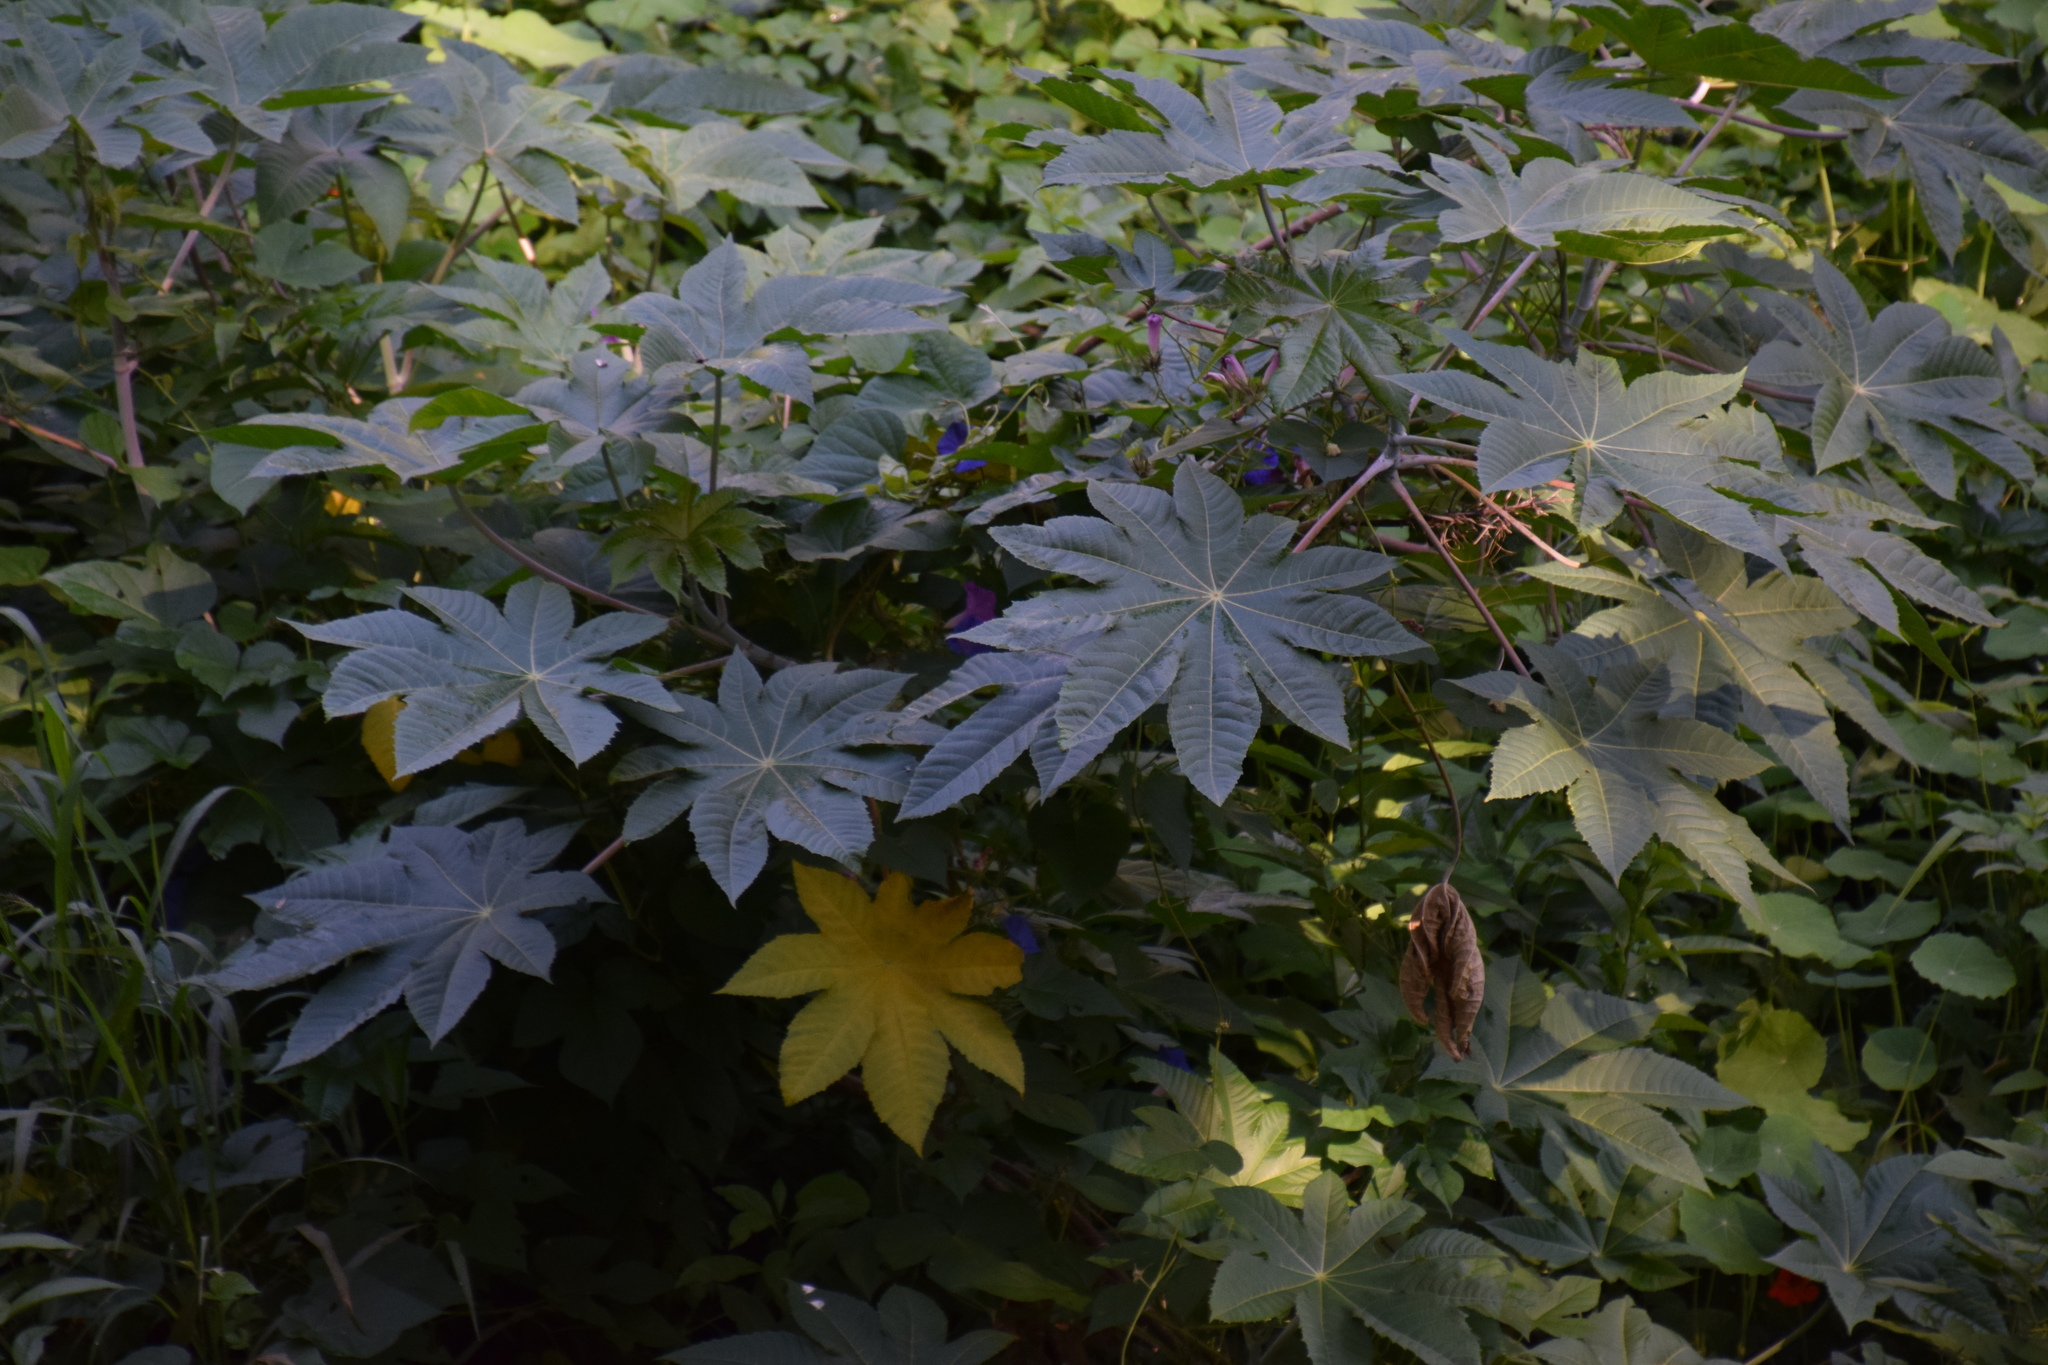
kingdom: Plantae
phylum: Tracheophyta
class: Magnoliopsida
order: Malpighiales
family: Euphorbiaceae
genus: Ricinus
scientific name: Ricinus communis
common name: Castor-oil-plant
